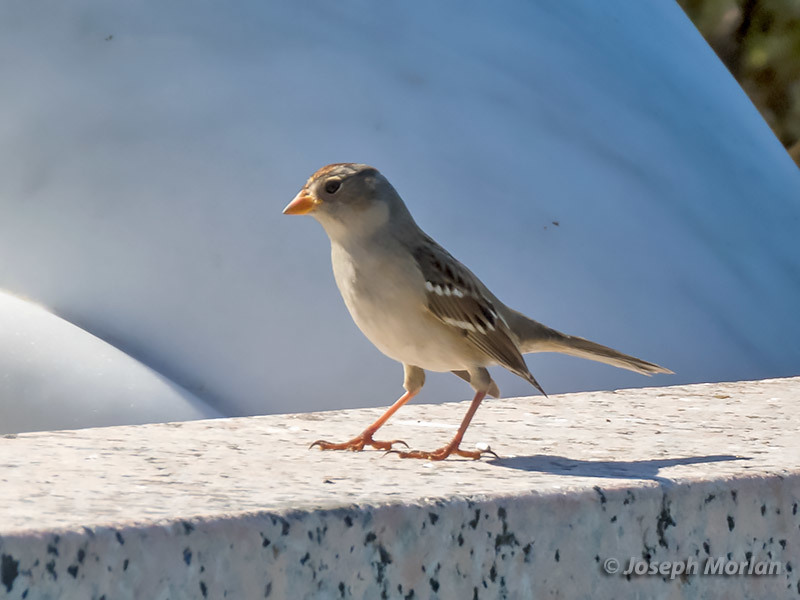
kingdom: Animalia
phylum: Chordata
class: Aves
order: Passeriformes
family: Passerellidae
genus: Zonotrichia
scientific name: Zonotrichia leucophrys
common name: White-crowned sparrow
